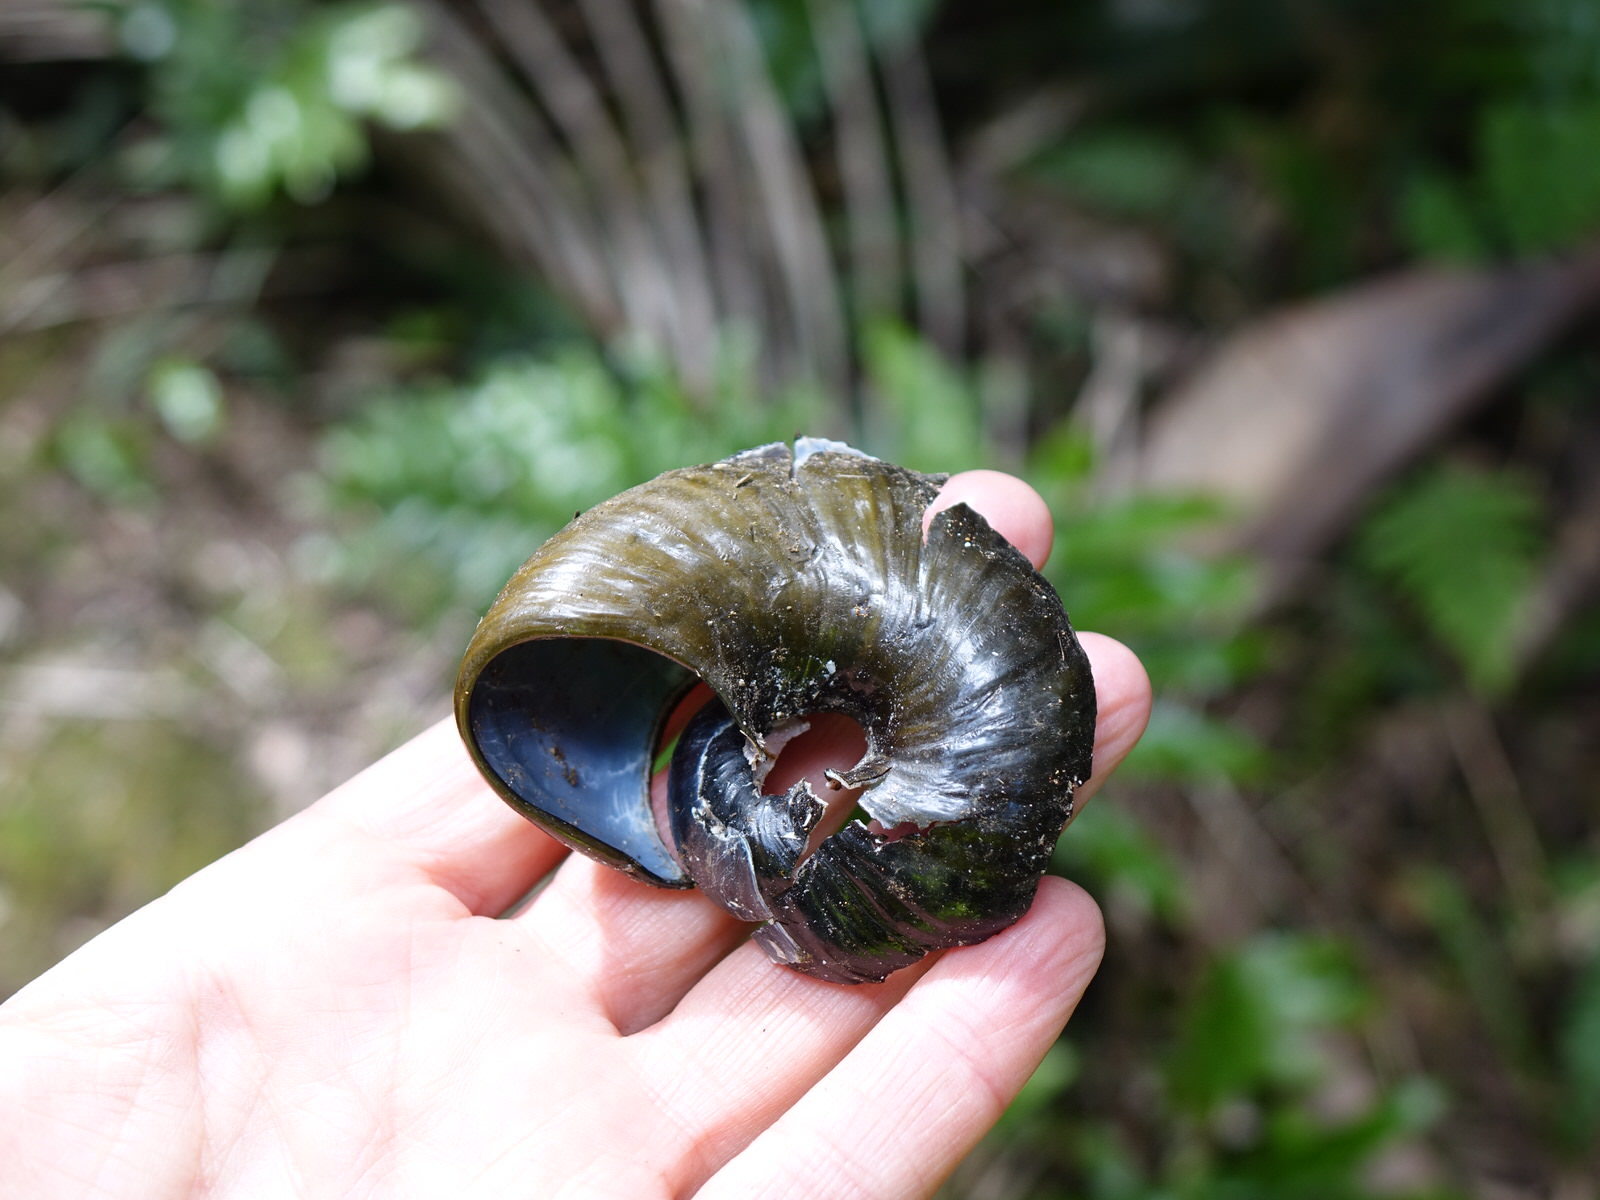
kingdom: Animalia
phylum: Mollusca
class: Gastropoda
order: Stylommatophora
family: Rhytididae
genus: Paryphanta
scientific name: Paryphanta busbyi
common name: Kauri snail
